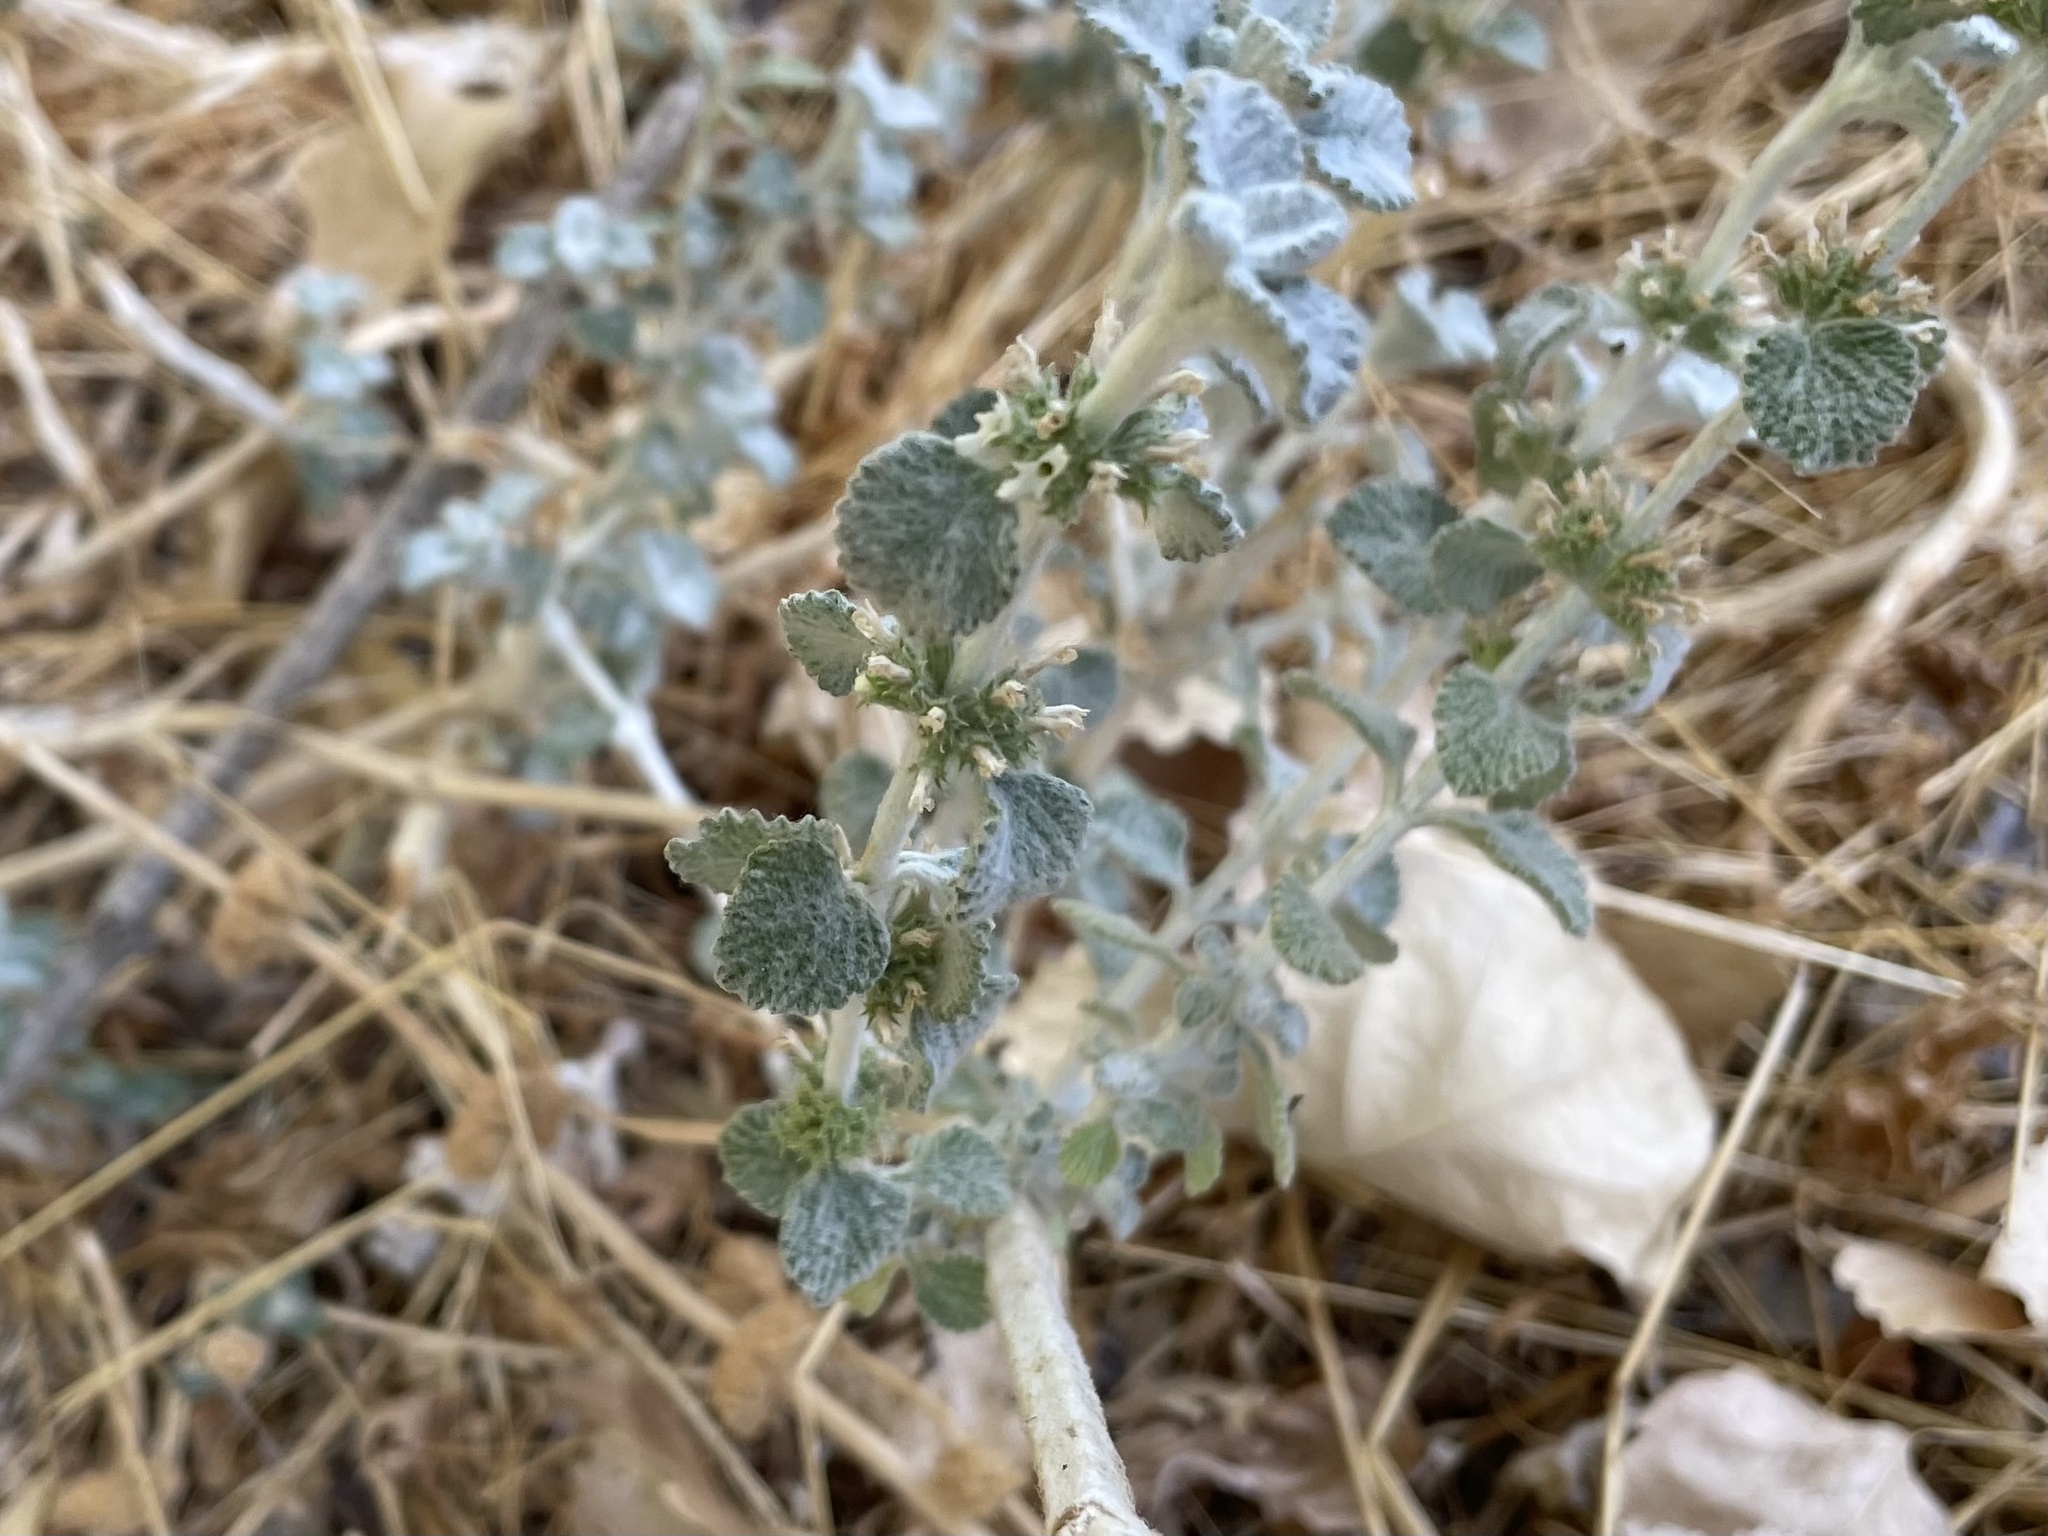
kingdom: Plantae
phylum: Tracheophyta
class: Magnoliopsida
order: Lamiales
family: Lamiaceae
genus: Marrubium
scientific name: Marrubium vulgare
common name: Horehound
